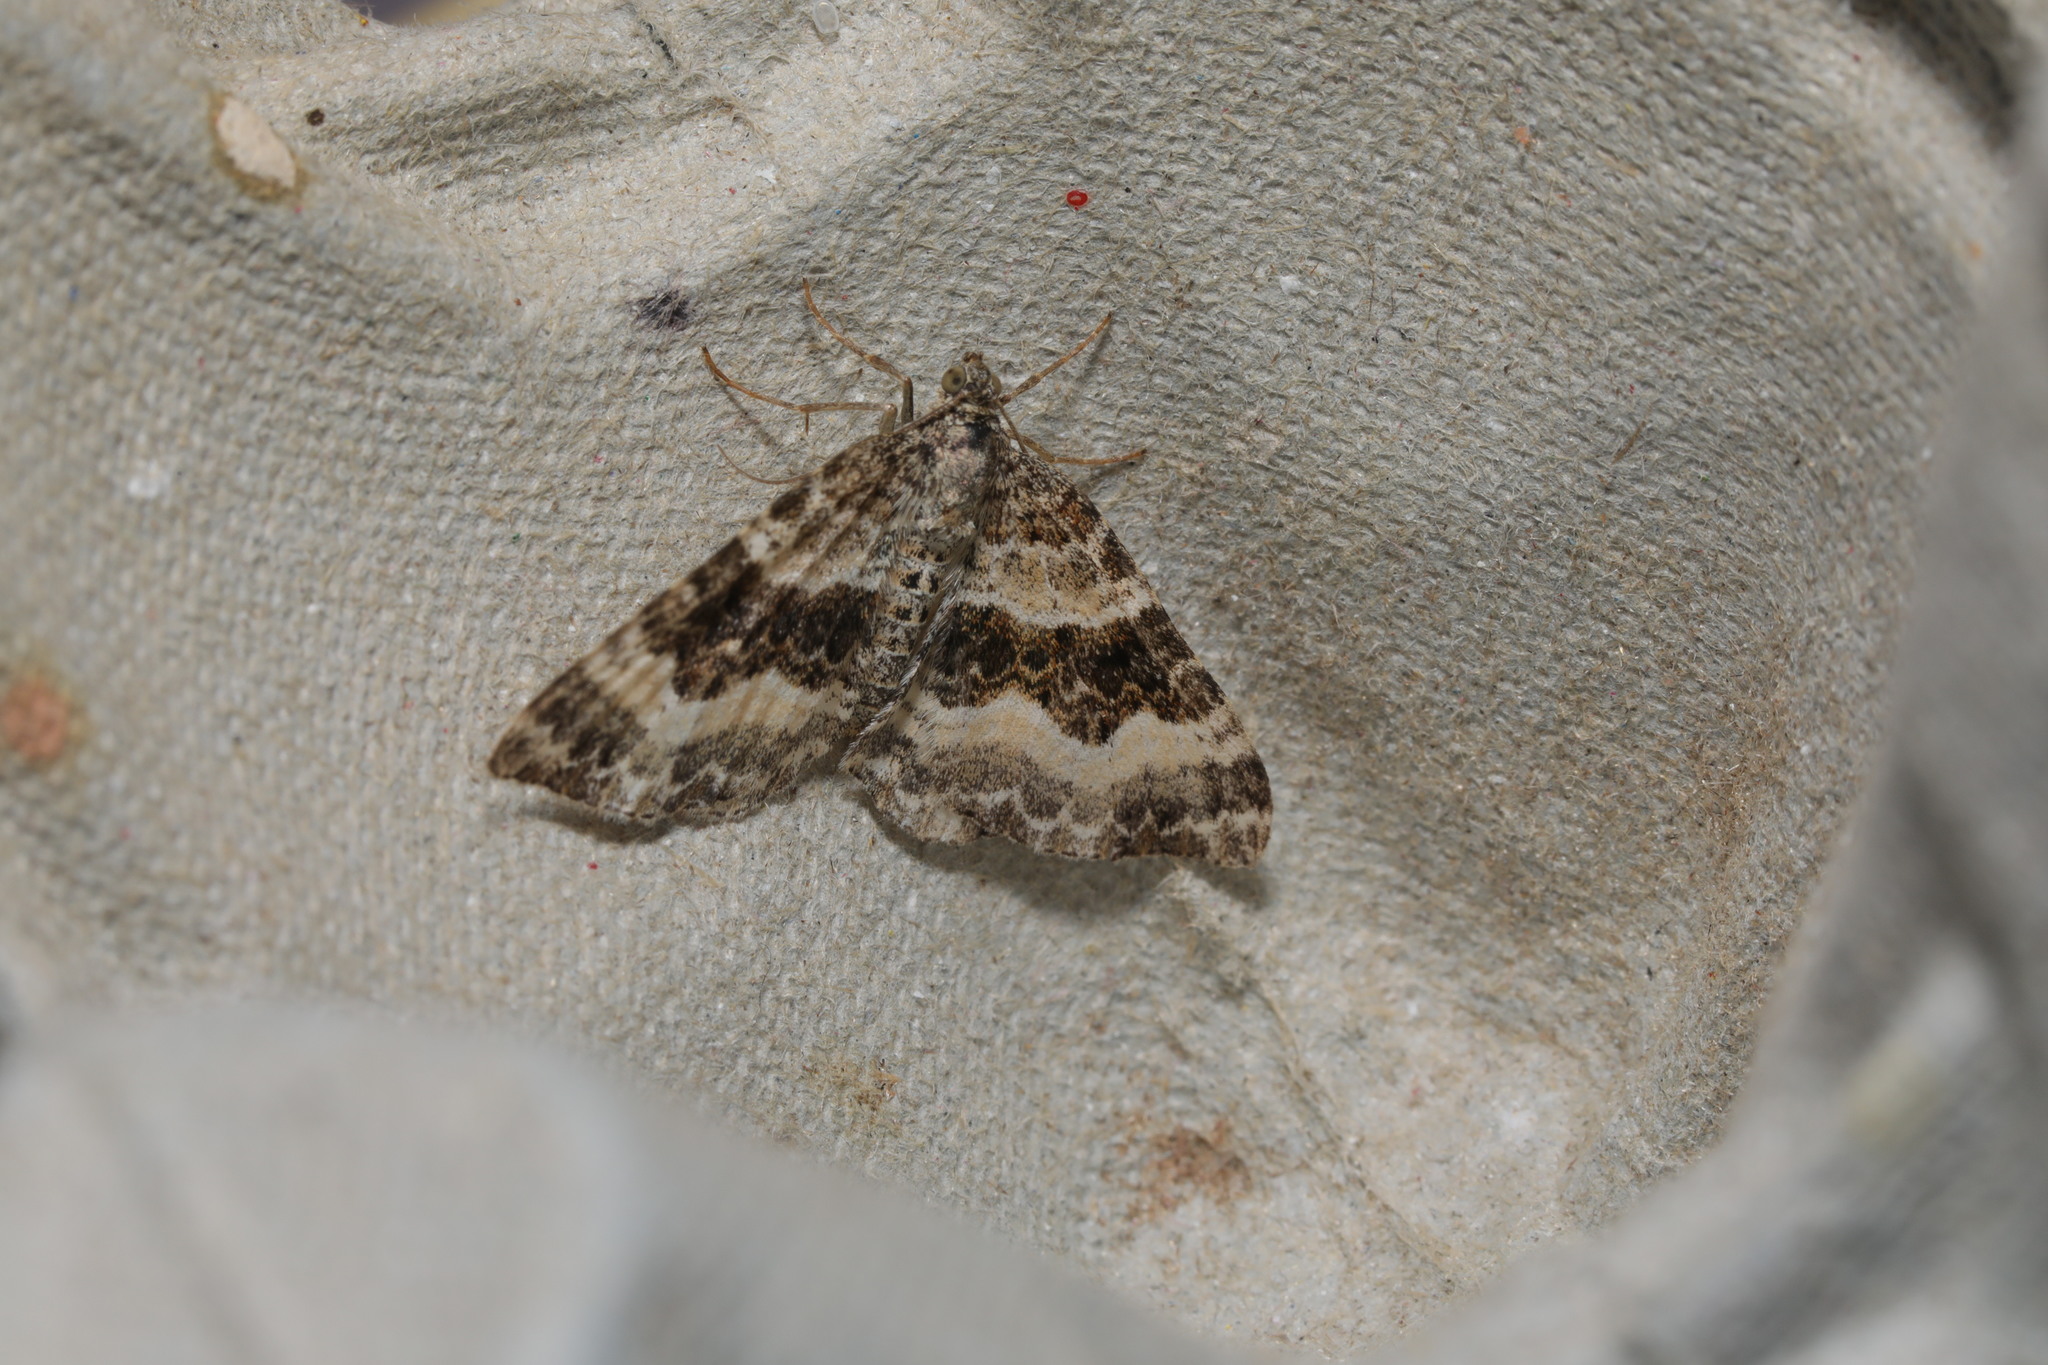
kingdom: Animalia
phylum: Arthropoda
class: Insecta
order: Lepidoptera
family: Geometridae
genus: Epirrhoe
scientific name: Epirrhoe alternata
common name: Common carpet
